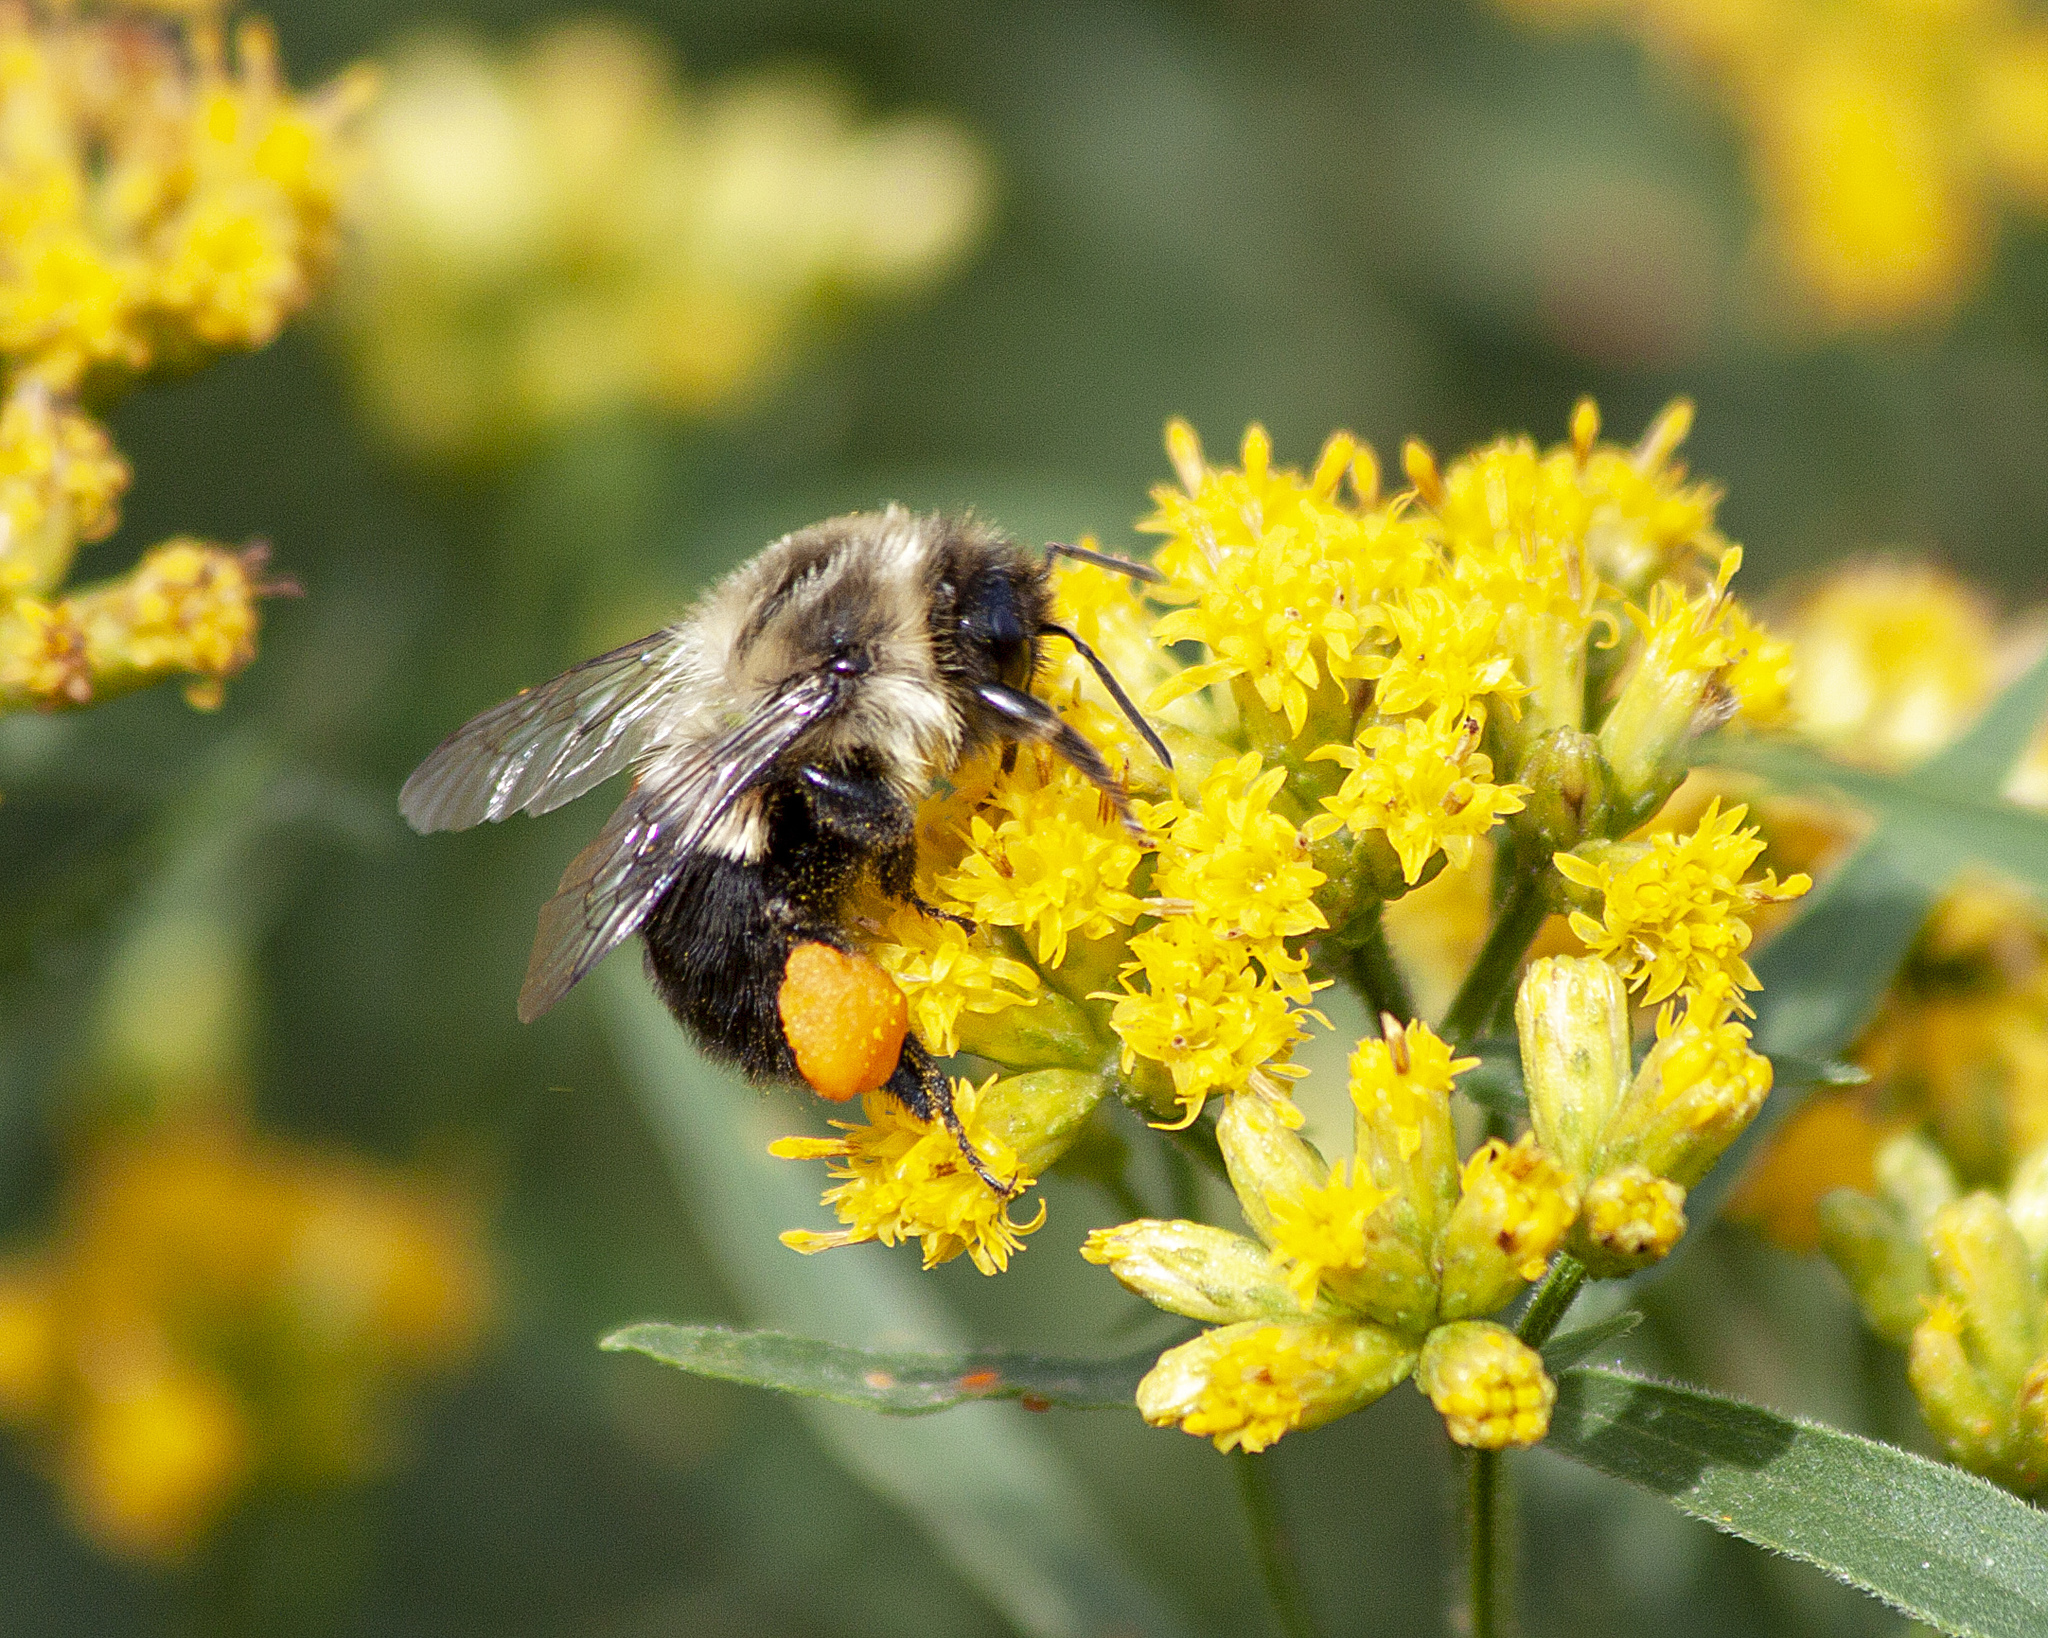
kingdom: Animalia
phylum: Arthropoda
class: Insecta
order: Hymenoptera
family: Apidae
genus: Bombus
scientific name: Bombus impatiens
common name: Common eastern bumble bee
